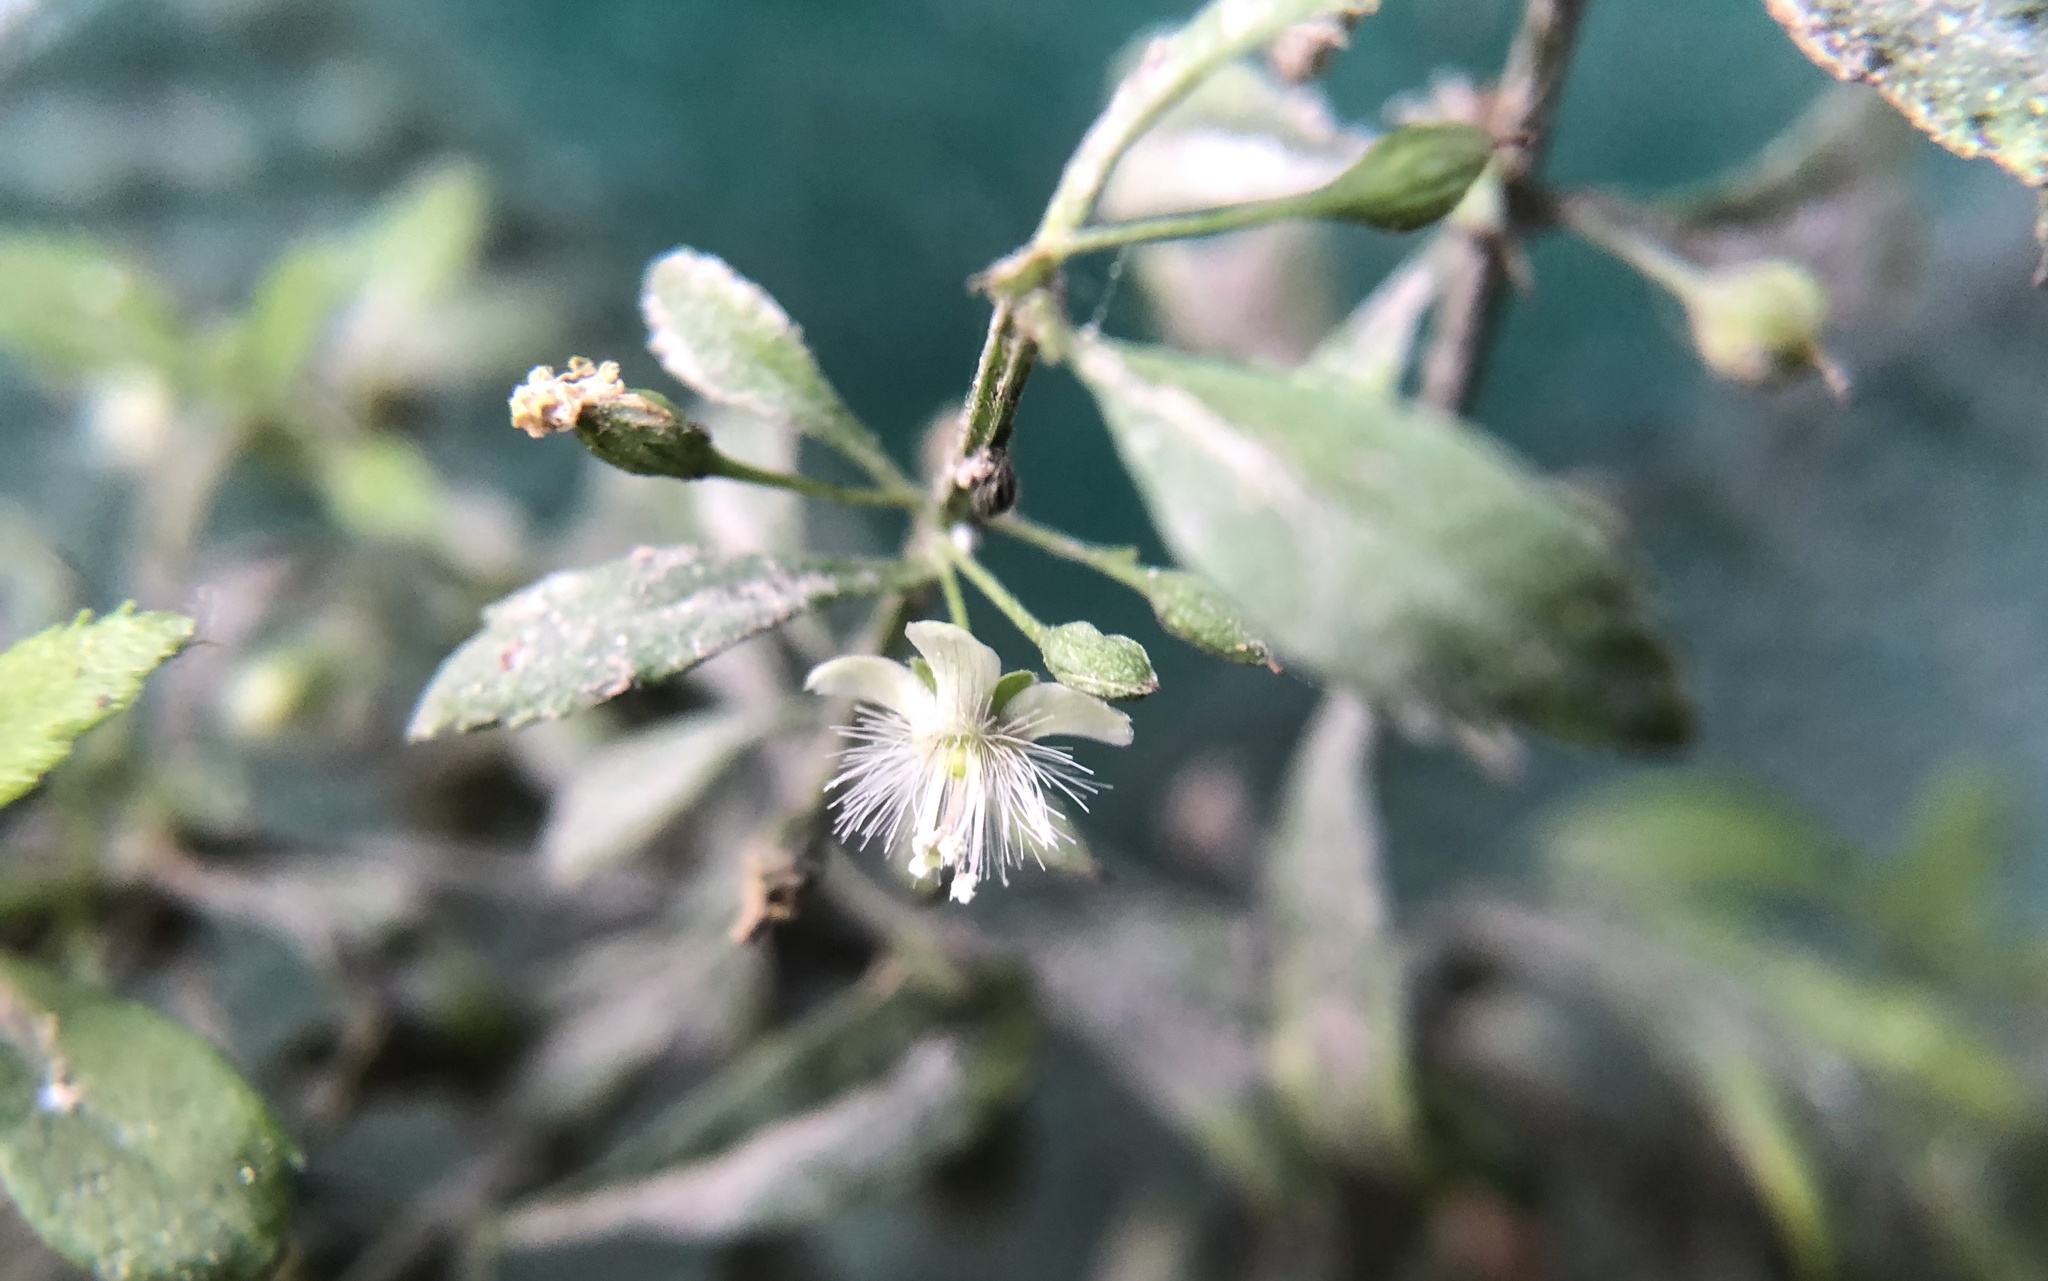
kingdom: Plantae
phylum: Tracheophyta
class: Magnoliopsida
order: Lamiales
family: Plantaginaceae
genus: Scoparia
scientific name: Scoparia dulcis
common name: Scoparia-weed
